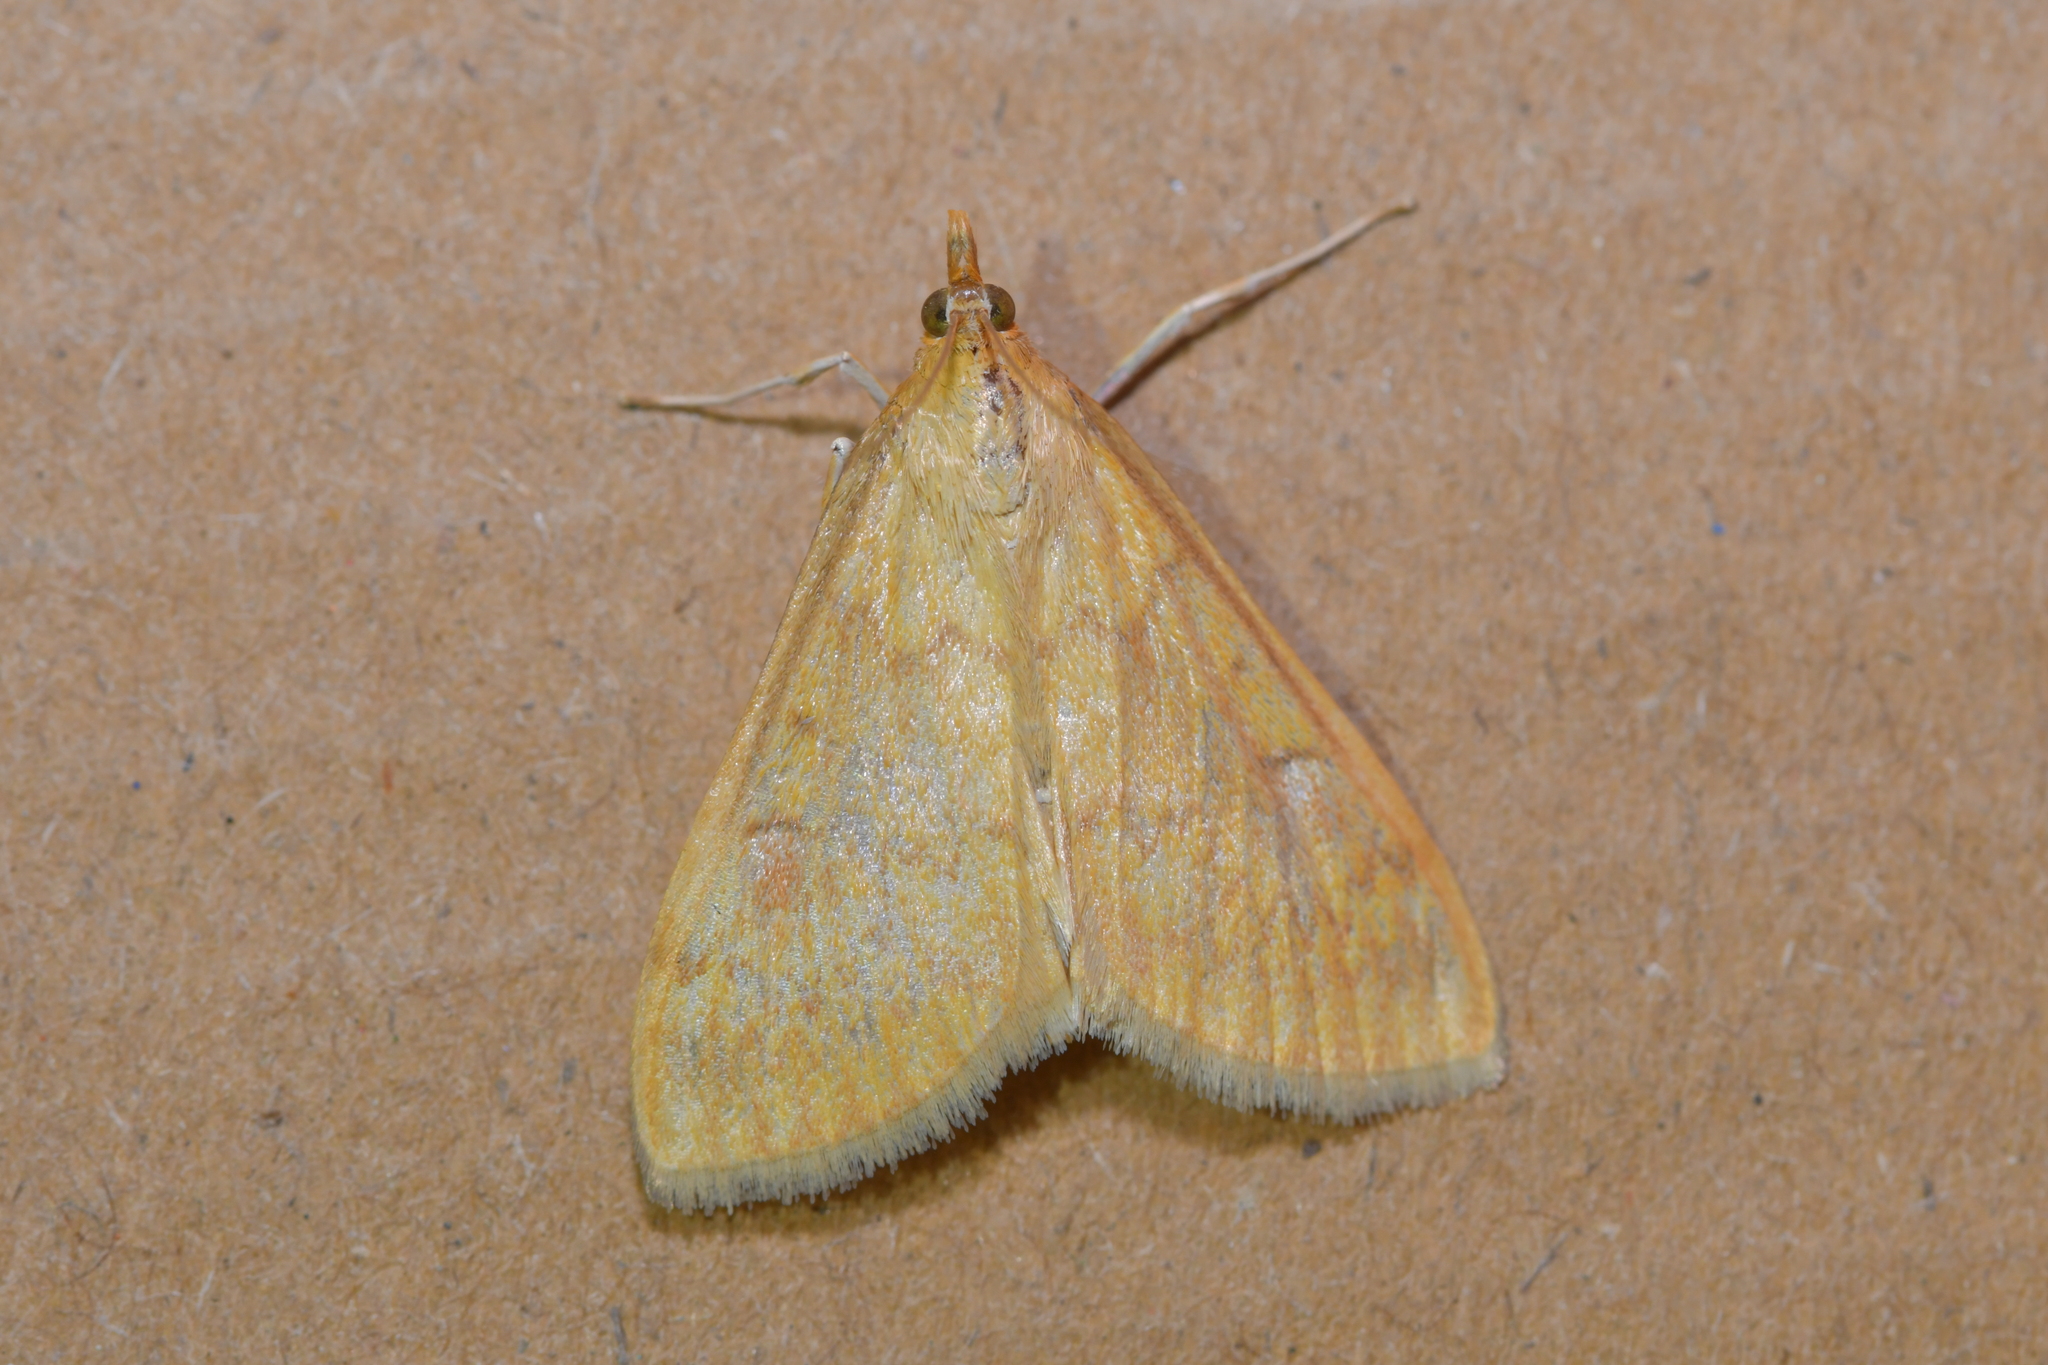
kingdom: Animalia
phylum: Arthropoda
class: Insecta
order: Lepidoptera
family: Crambidae
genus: Ostrinia
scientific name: Ostrinia nubilalis
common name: European corn borer
